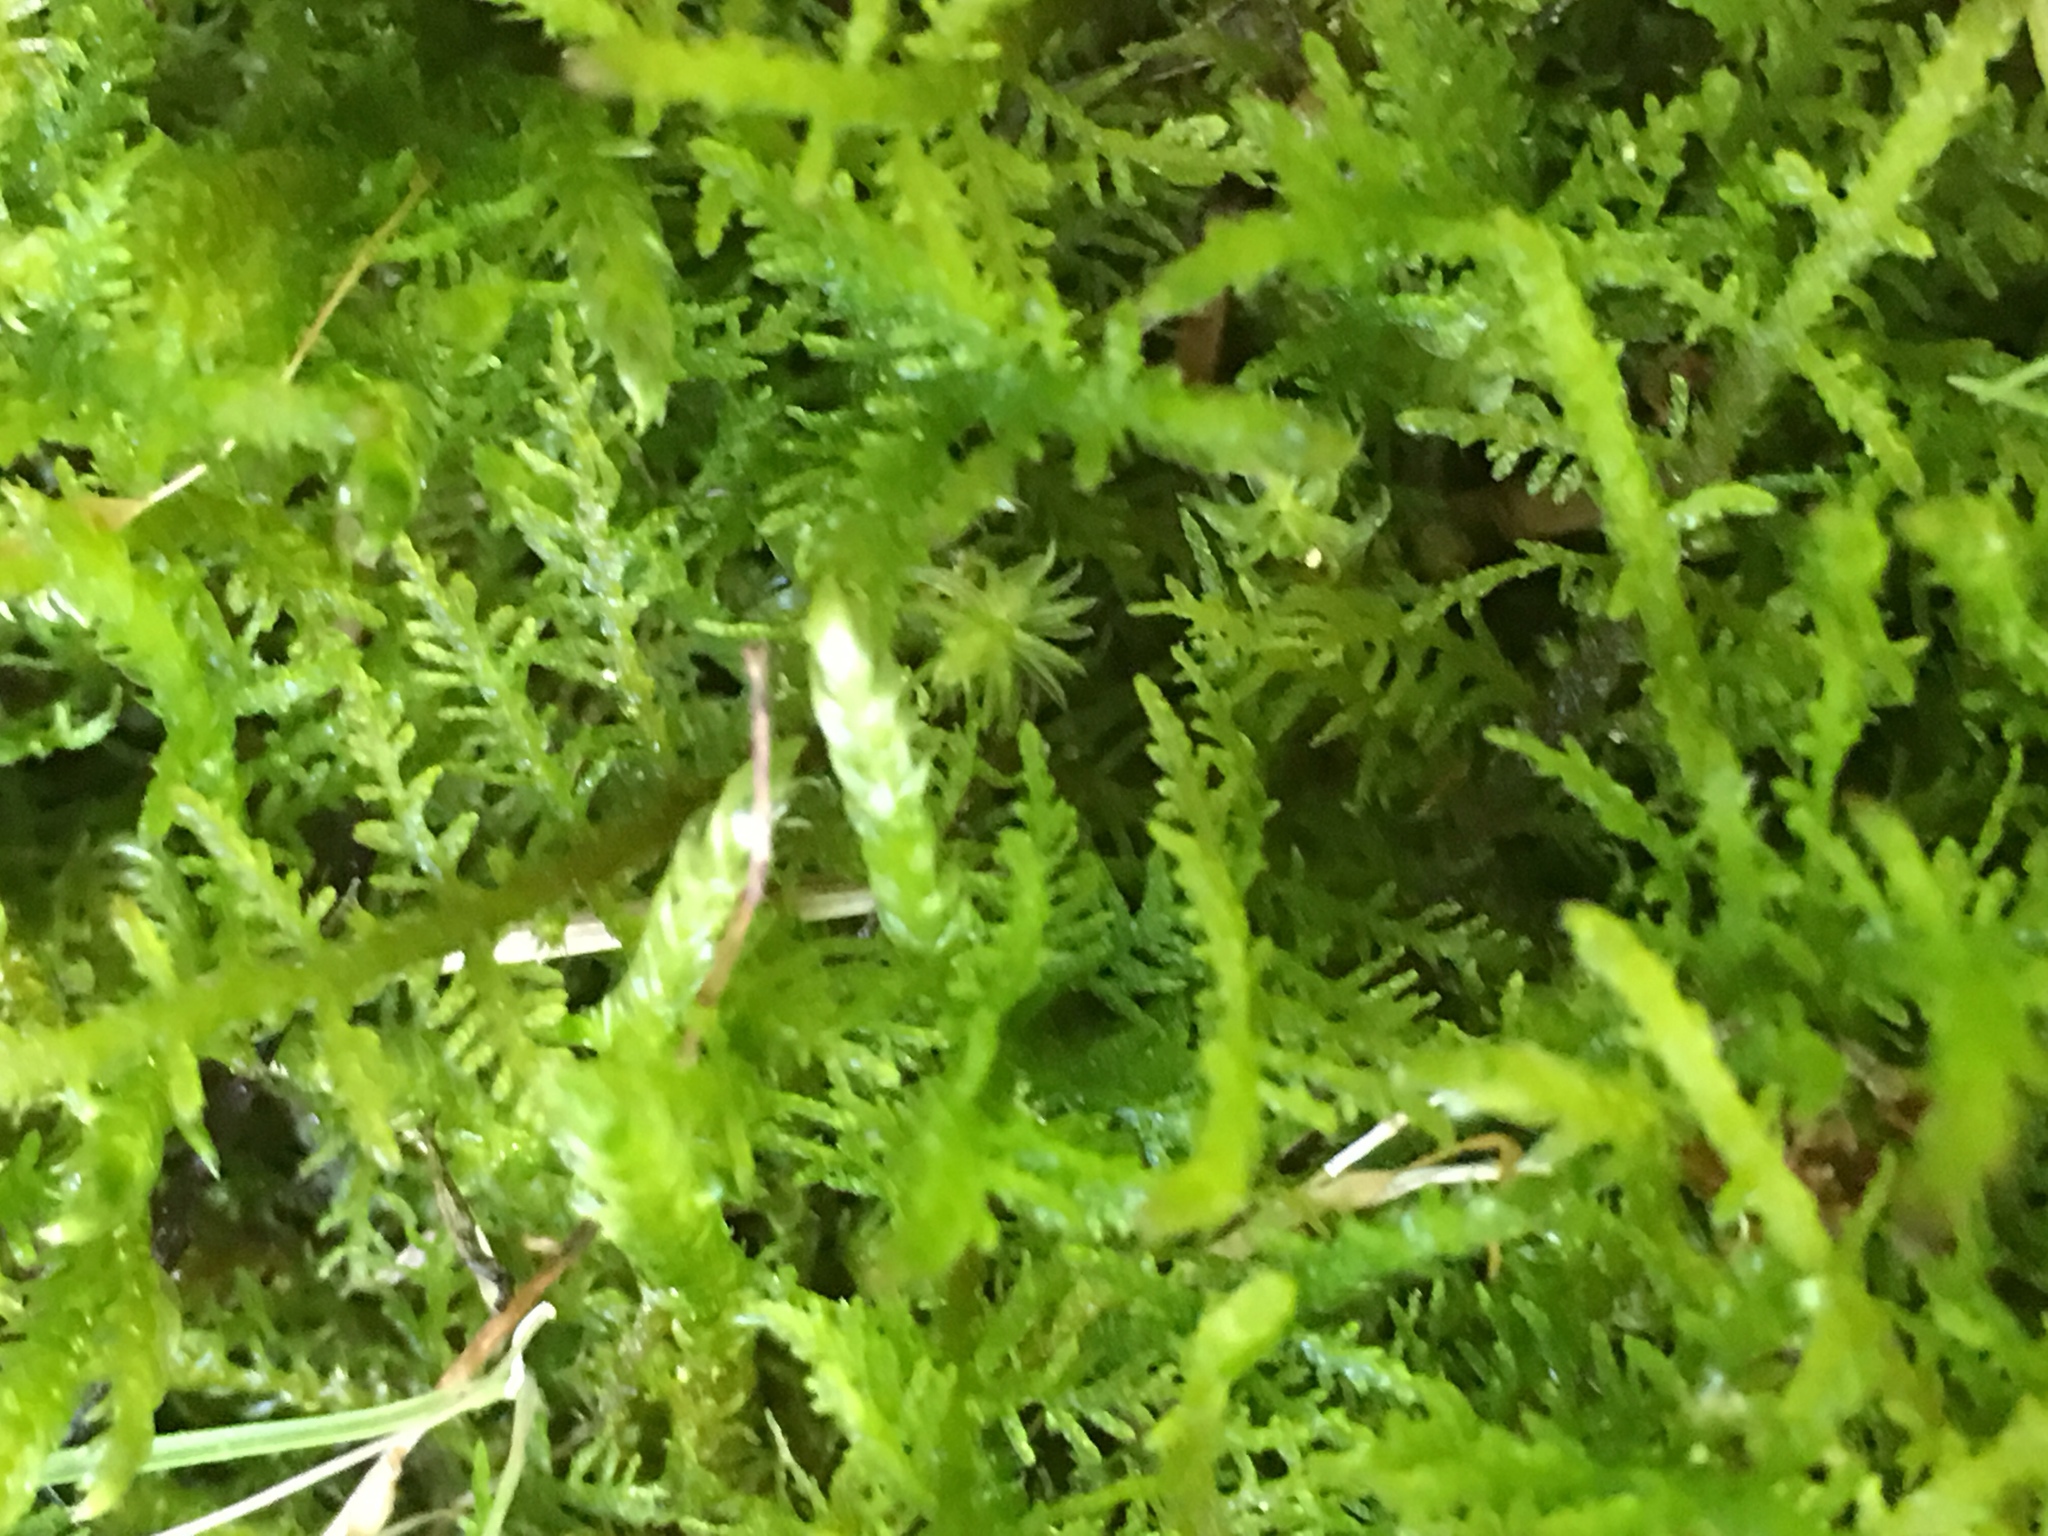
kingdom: Plantae
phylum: Bryophyta
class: Bryopsida
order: Hypnales
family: Thuidiaceae
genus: Thuidium
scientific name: Thuidium delicatulum
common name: Delicate fern moss
